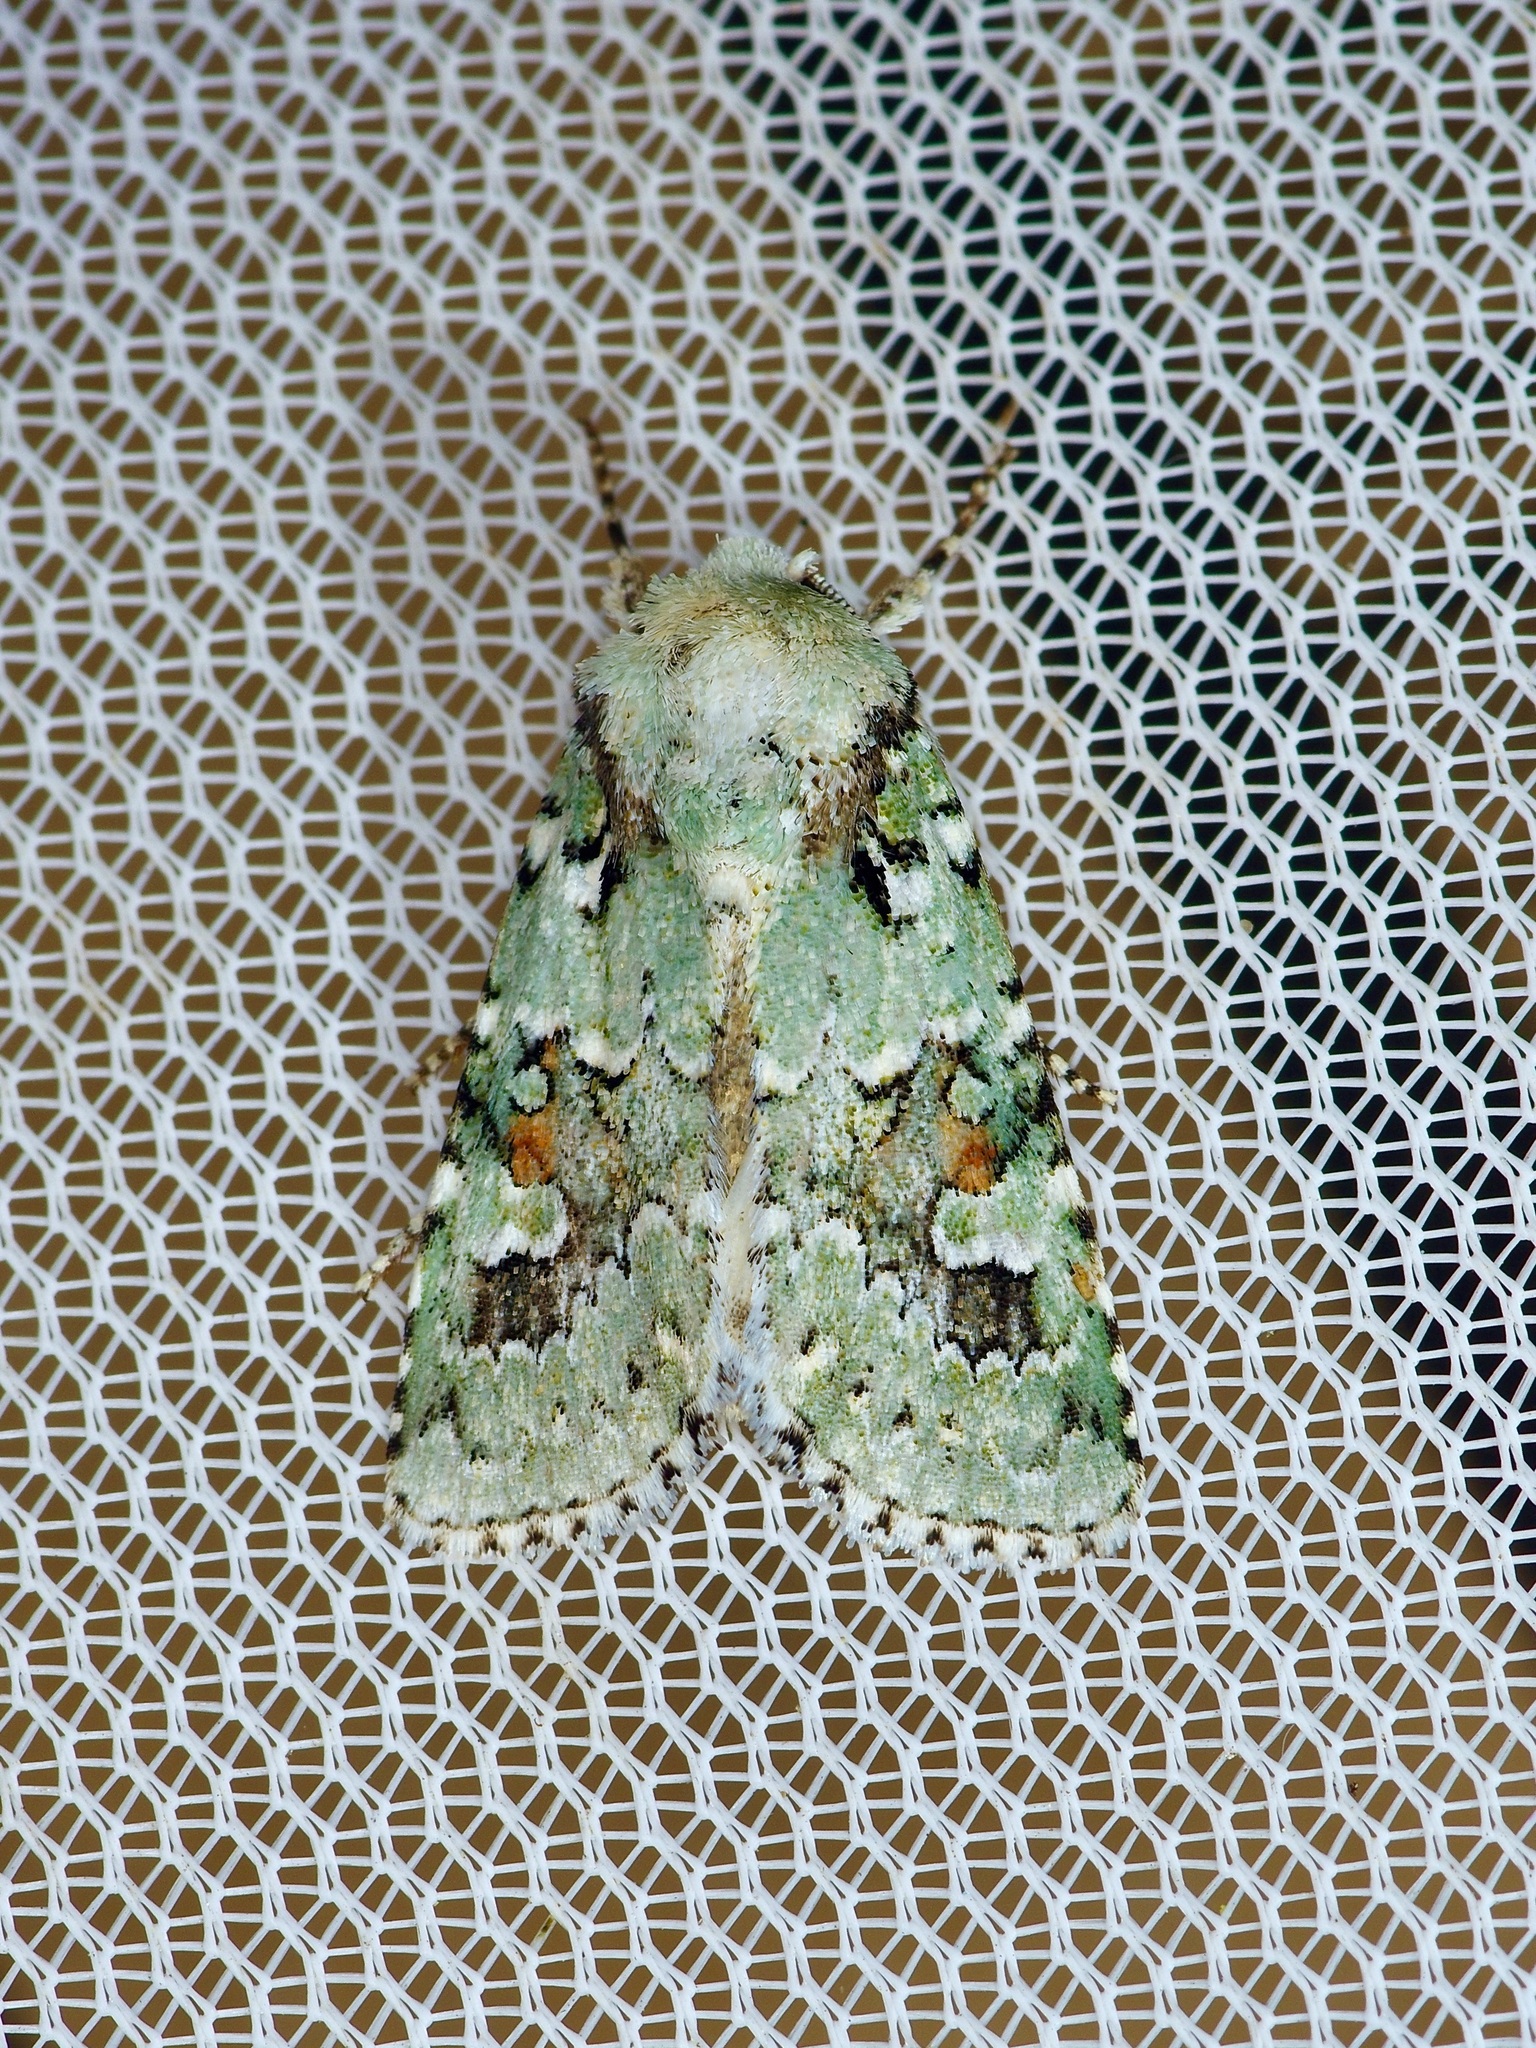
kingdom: Animalia
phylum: Arthropoda
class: Insecta
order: Lepidoptera
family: Noctuidae
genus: Lacinipolia
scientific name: Lacinipolia laudabilis
